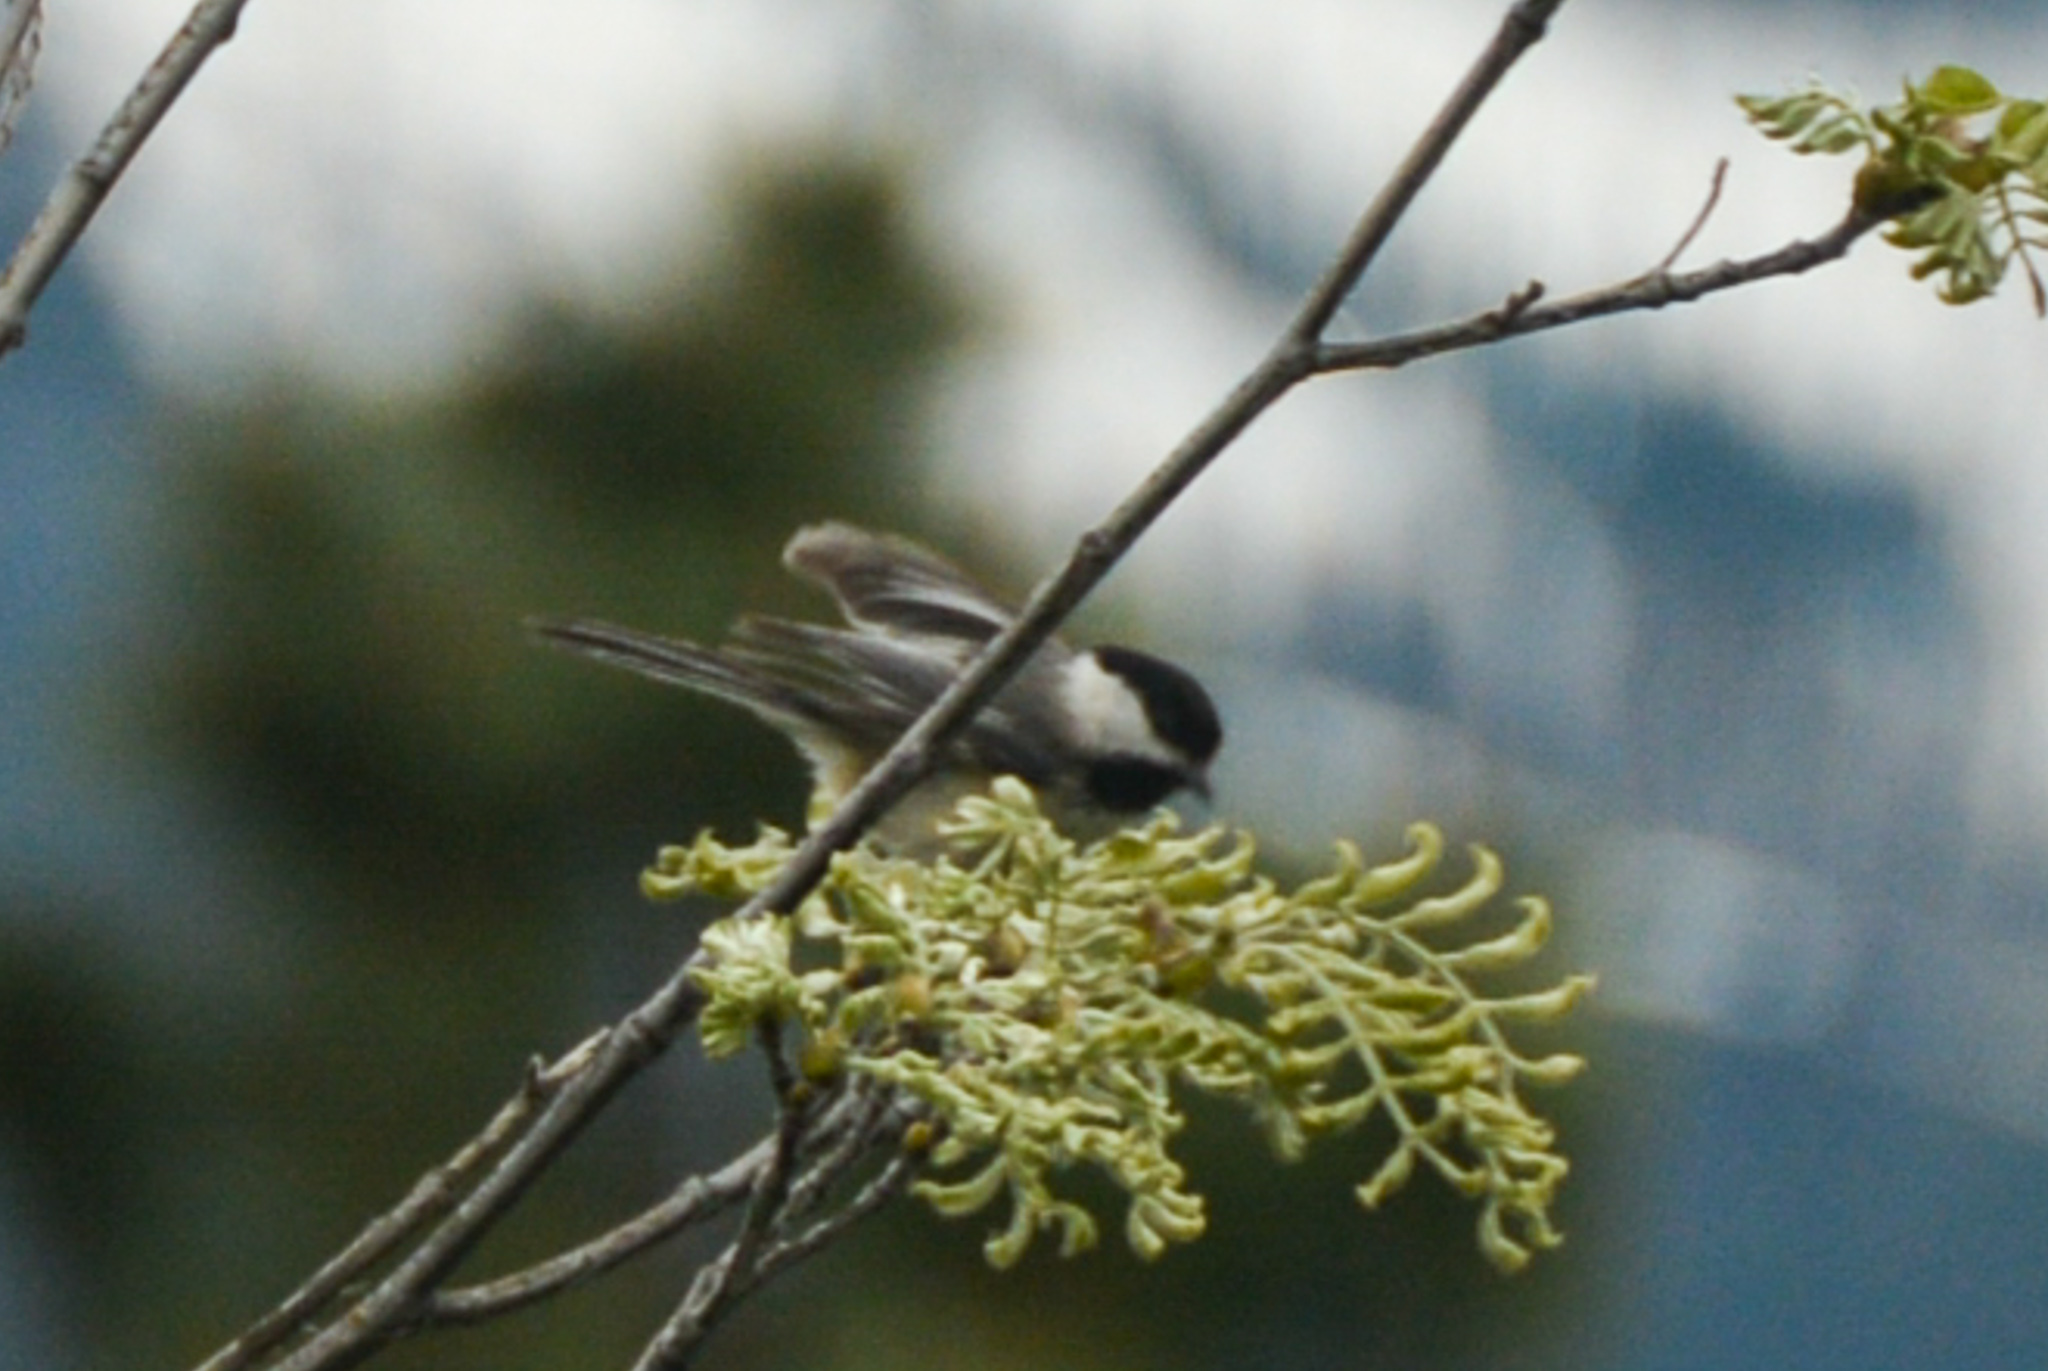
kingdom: Animalia
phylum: Chordata
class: Aves
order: Passeriformes
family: Paridae
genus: Poecile
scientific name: Poecile atricapillus
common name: Black-capped chickadee
